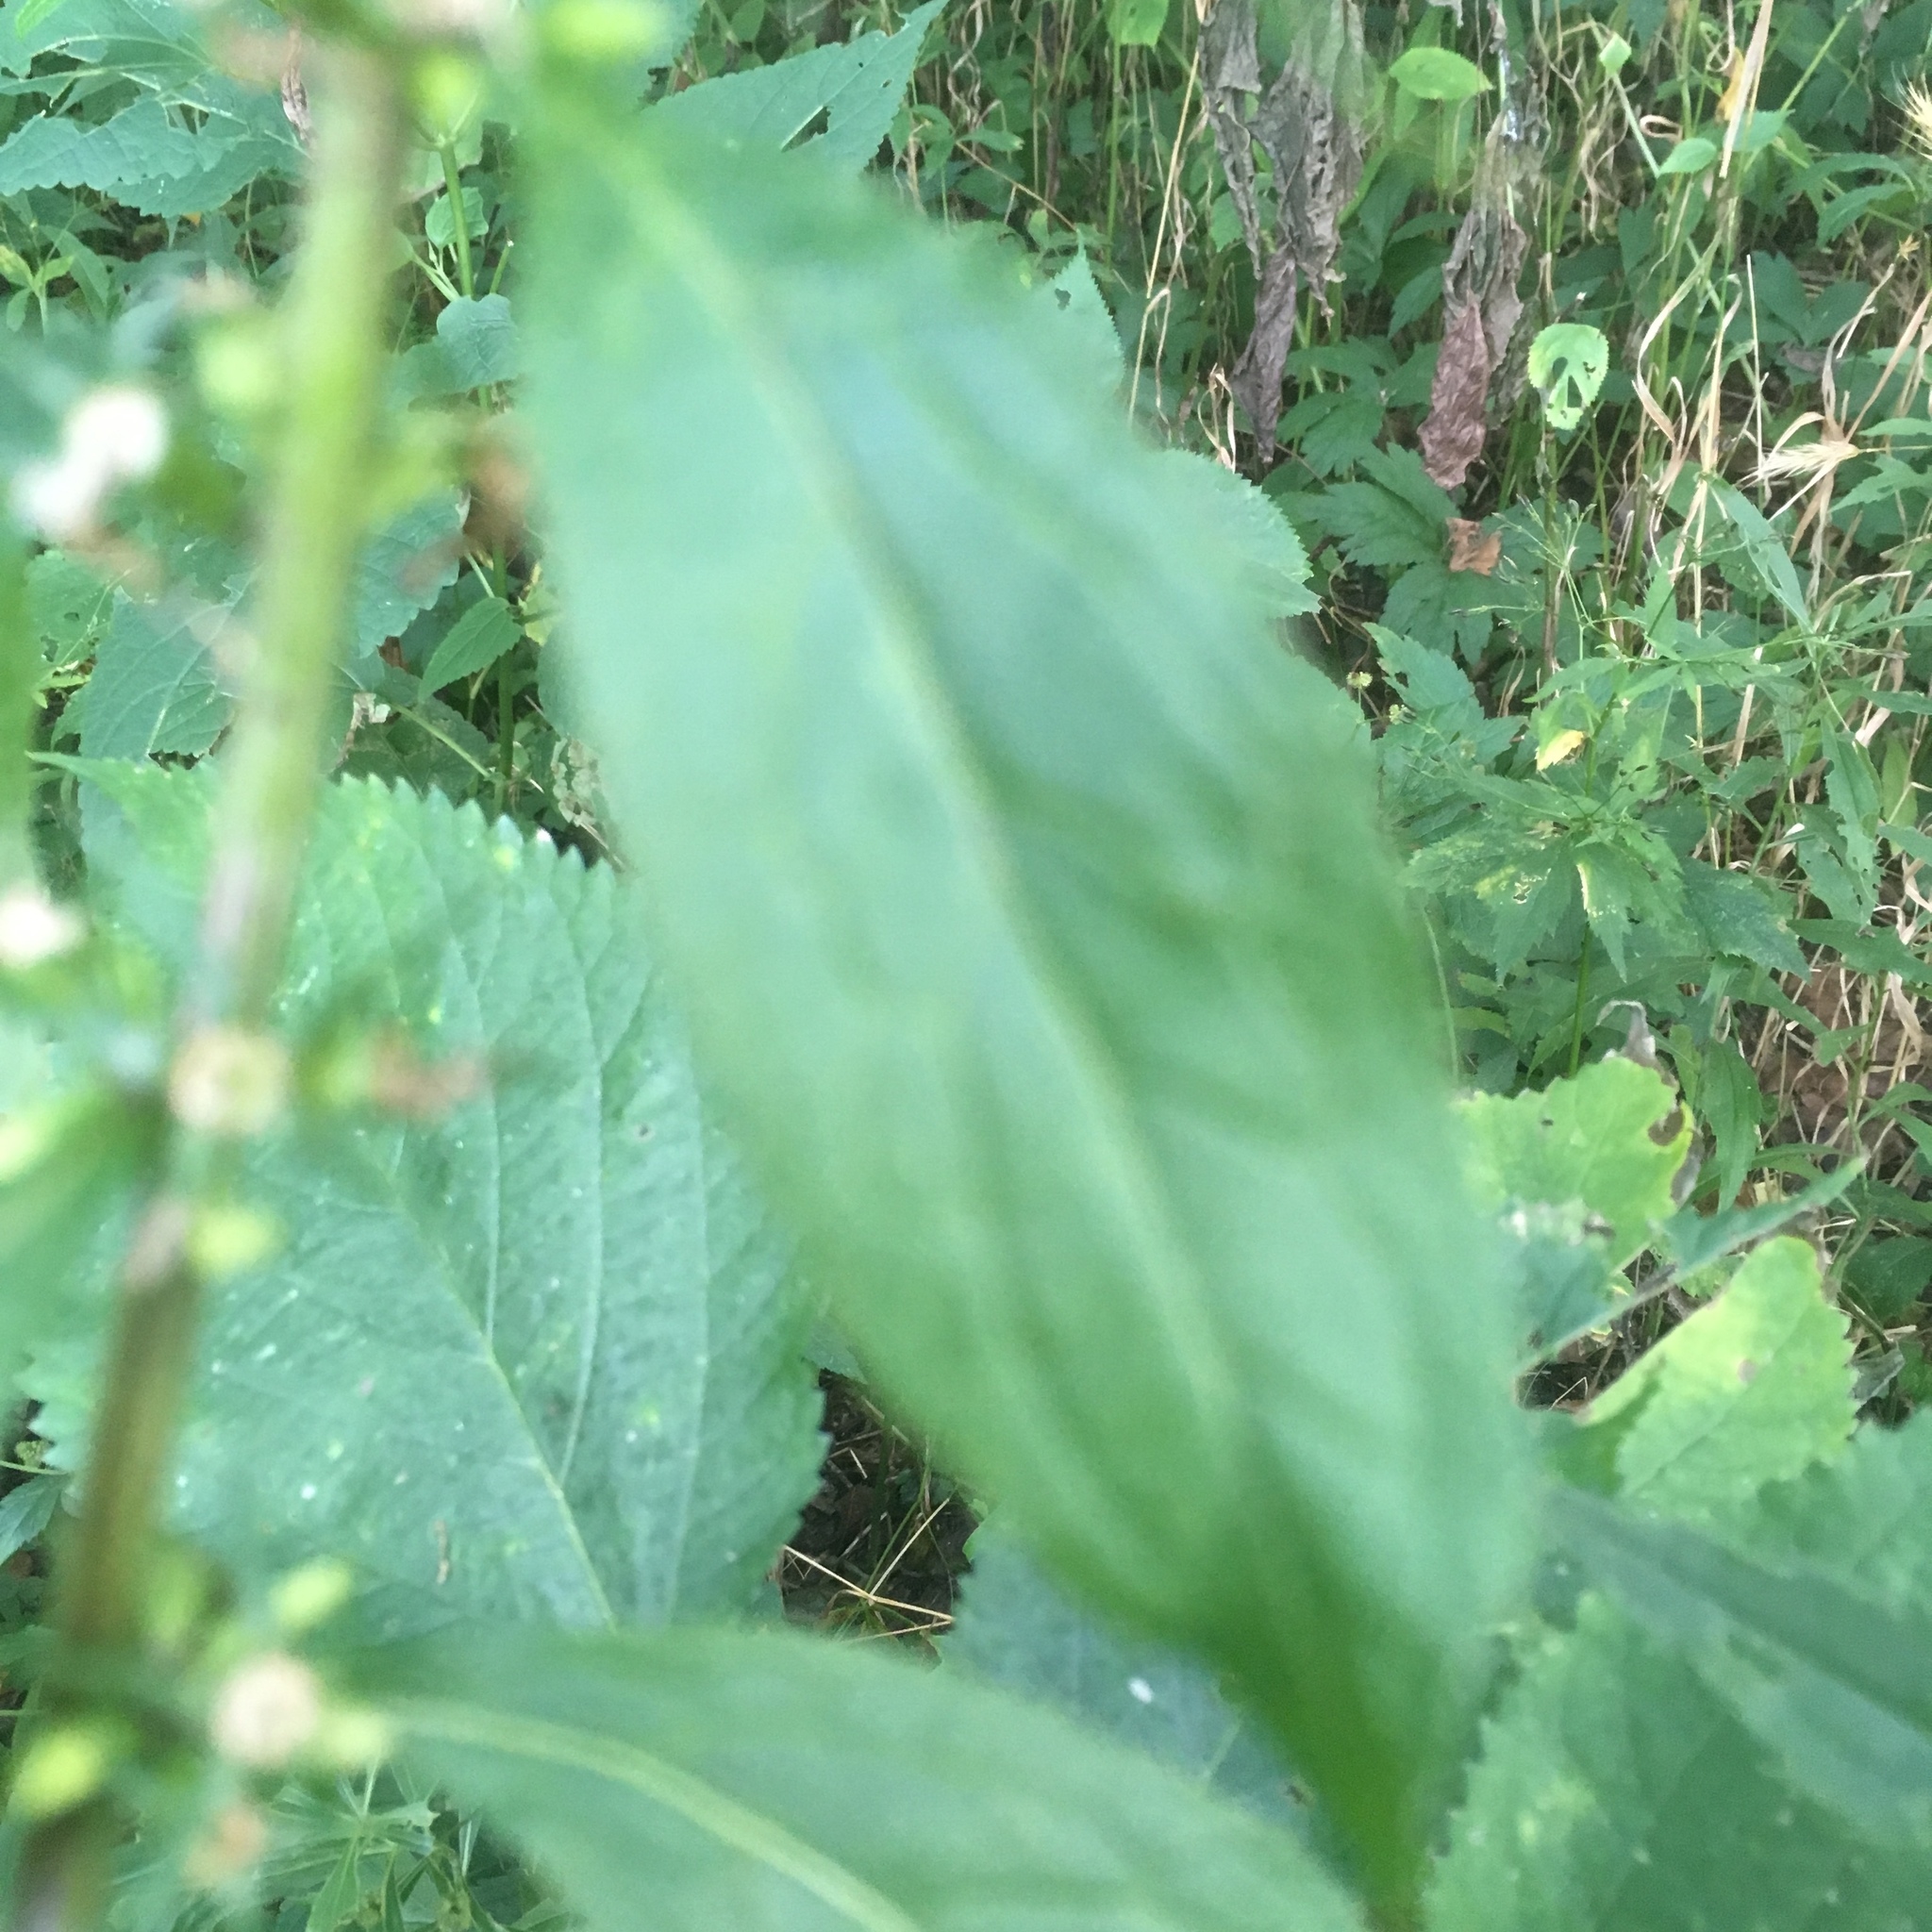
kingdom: Plantae
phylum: Tracheophyta
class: Magnoliopsida
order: Asterales
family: Campanulaceae
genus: Campanulastrum
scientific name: Campanulastrum americanum
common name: American bellflower
